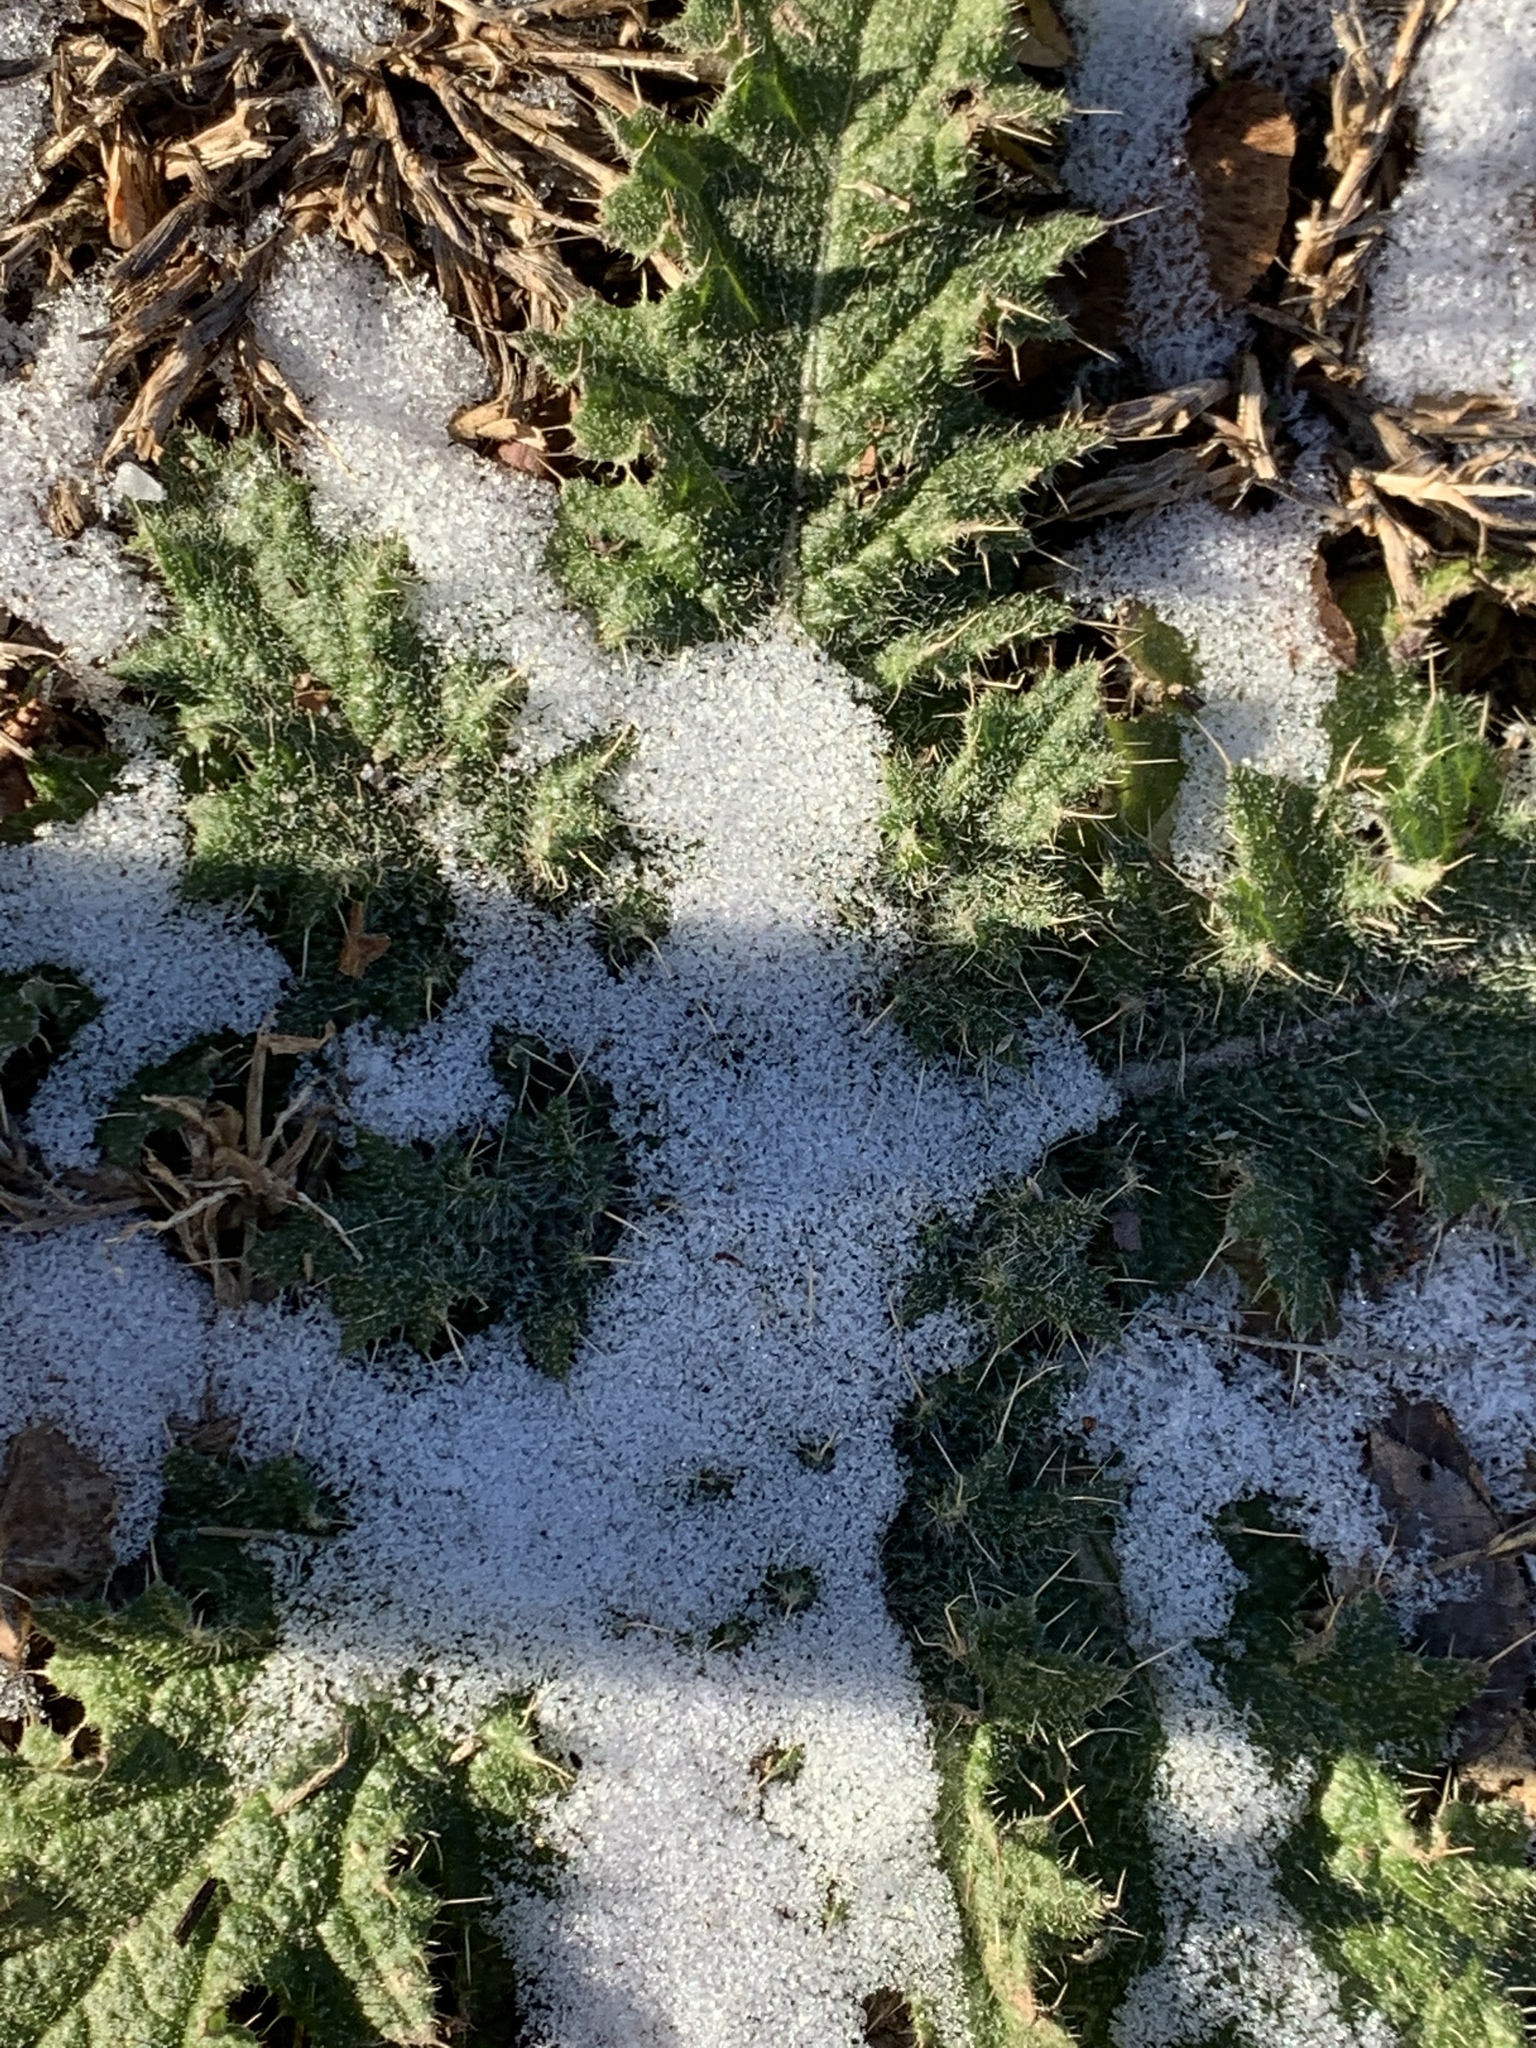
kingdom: Plantae
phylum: Tracheophyta
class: Magnoliopsida
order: Asterales
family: Asteraceae
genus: Cirsium
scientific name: Cirsium vulgare
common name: Bull thistle
